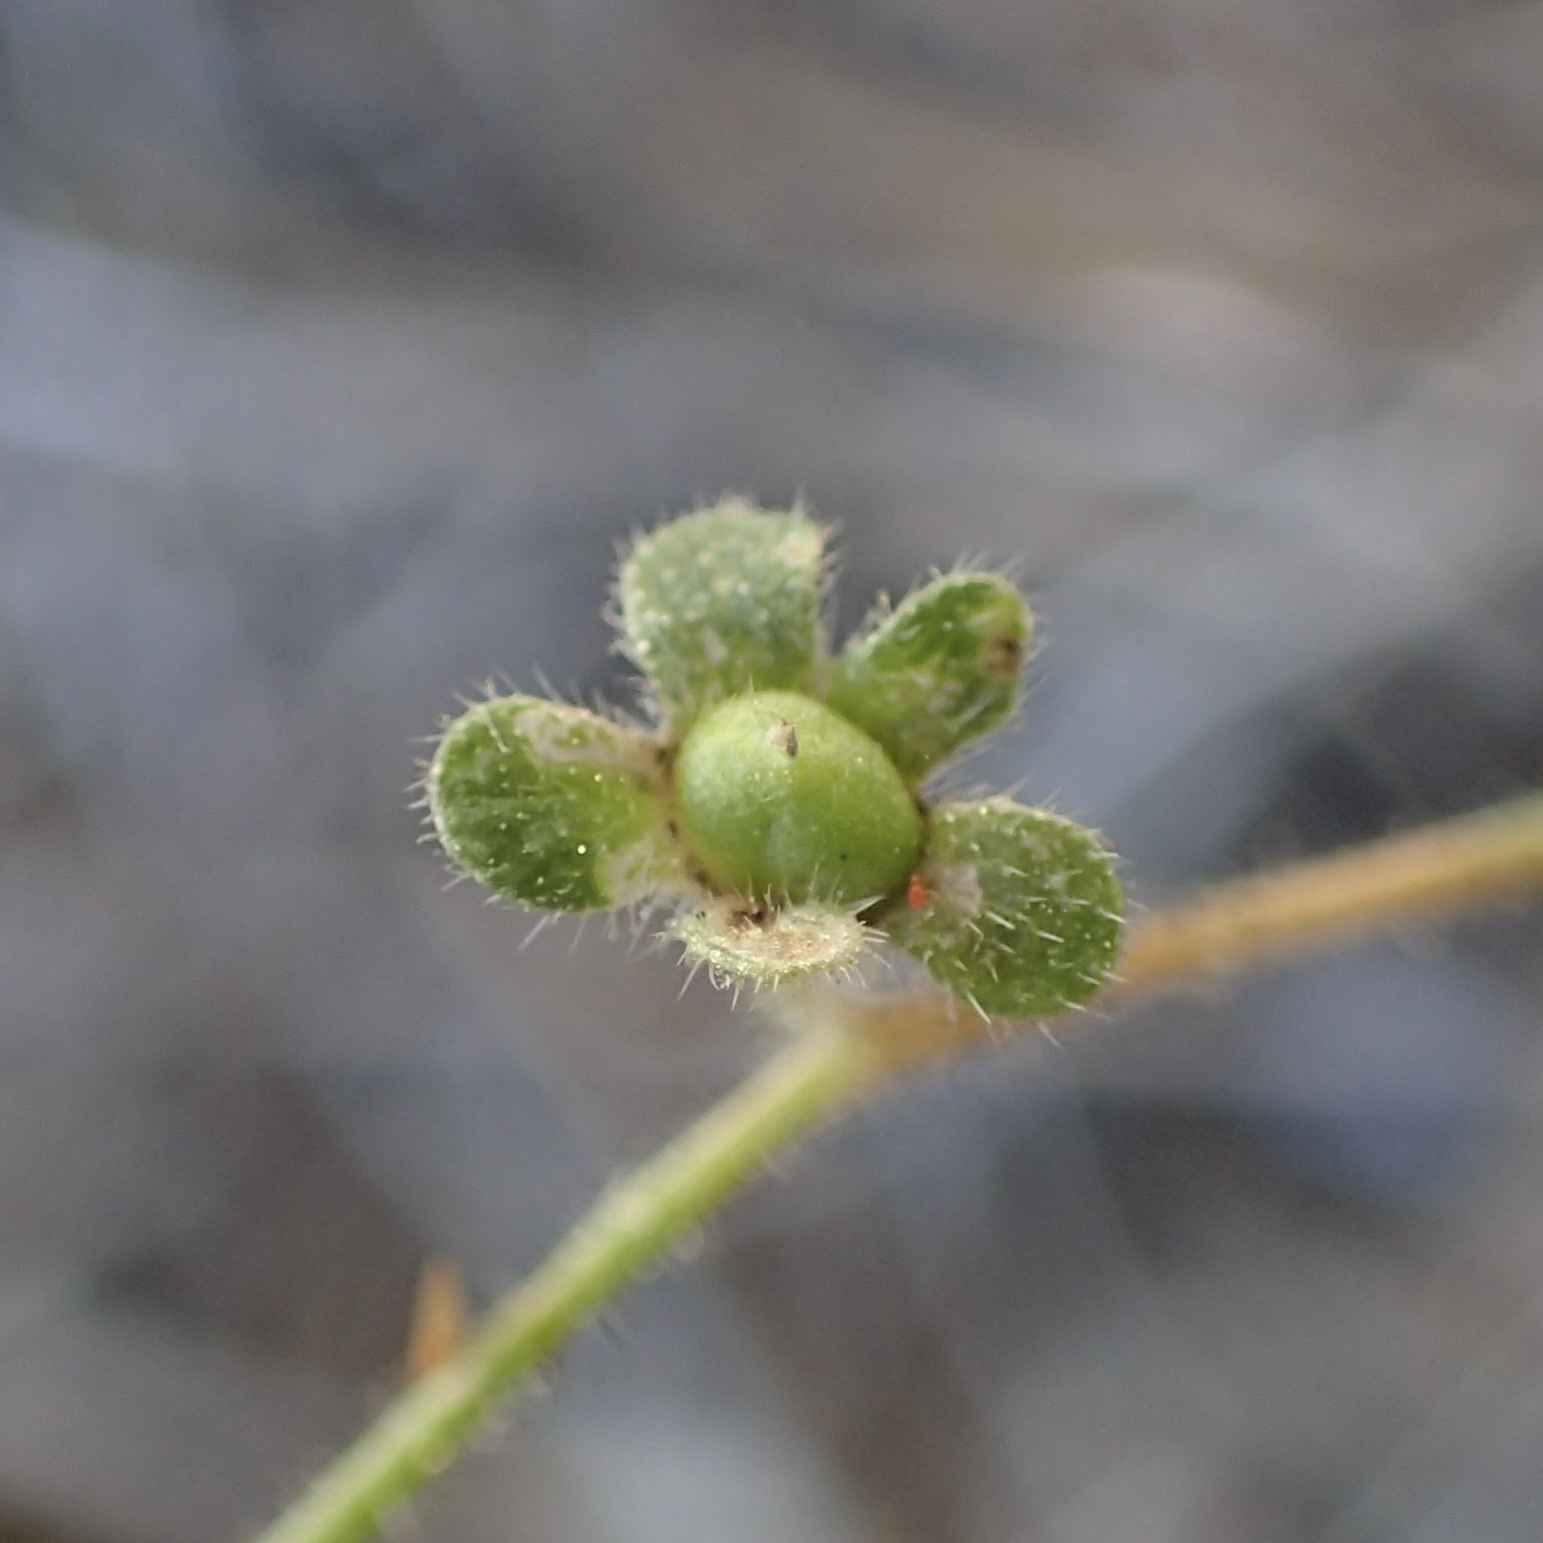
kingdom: Plantae
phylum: Tracheophyta
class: Magnoliopsida
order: Boraginales
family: Hydrophyllaceae
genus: Eucrypta
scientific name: Eucrypta micrantha
